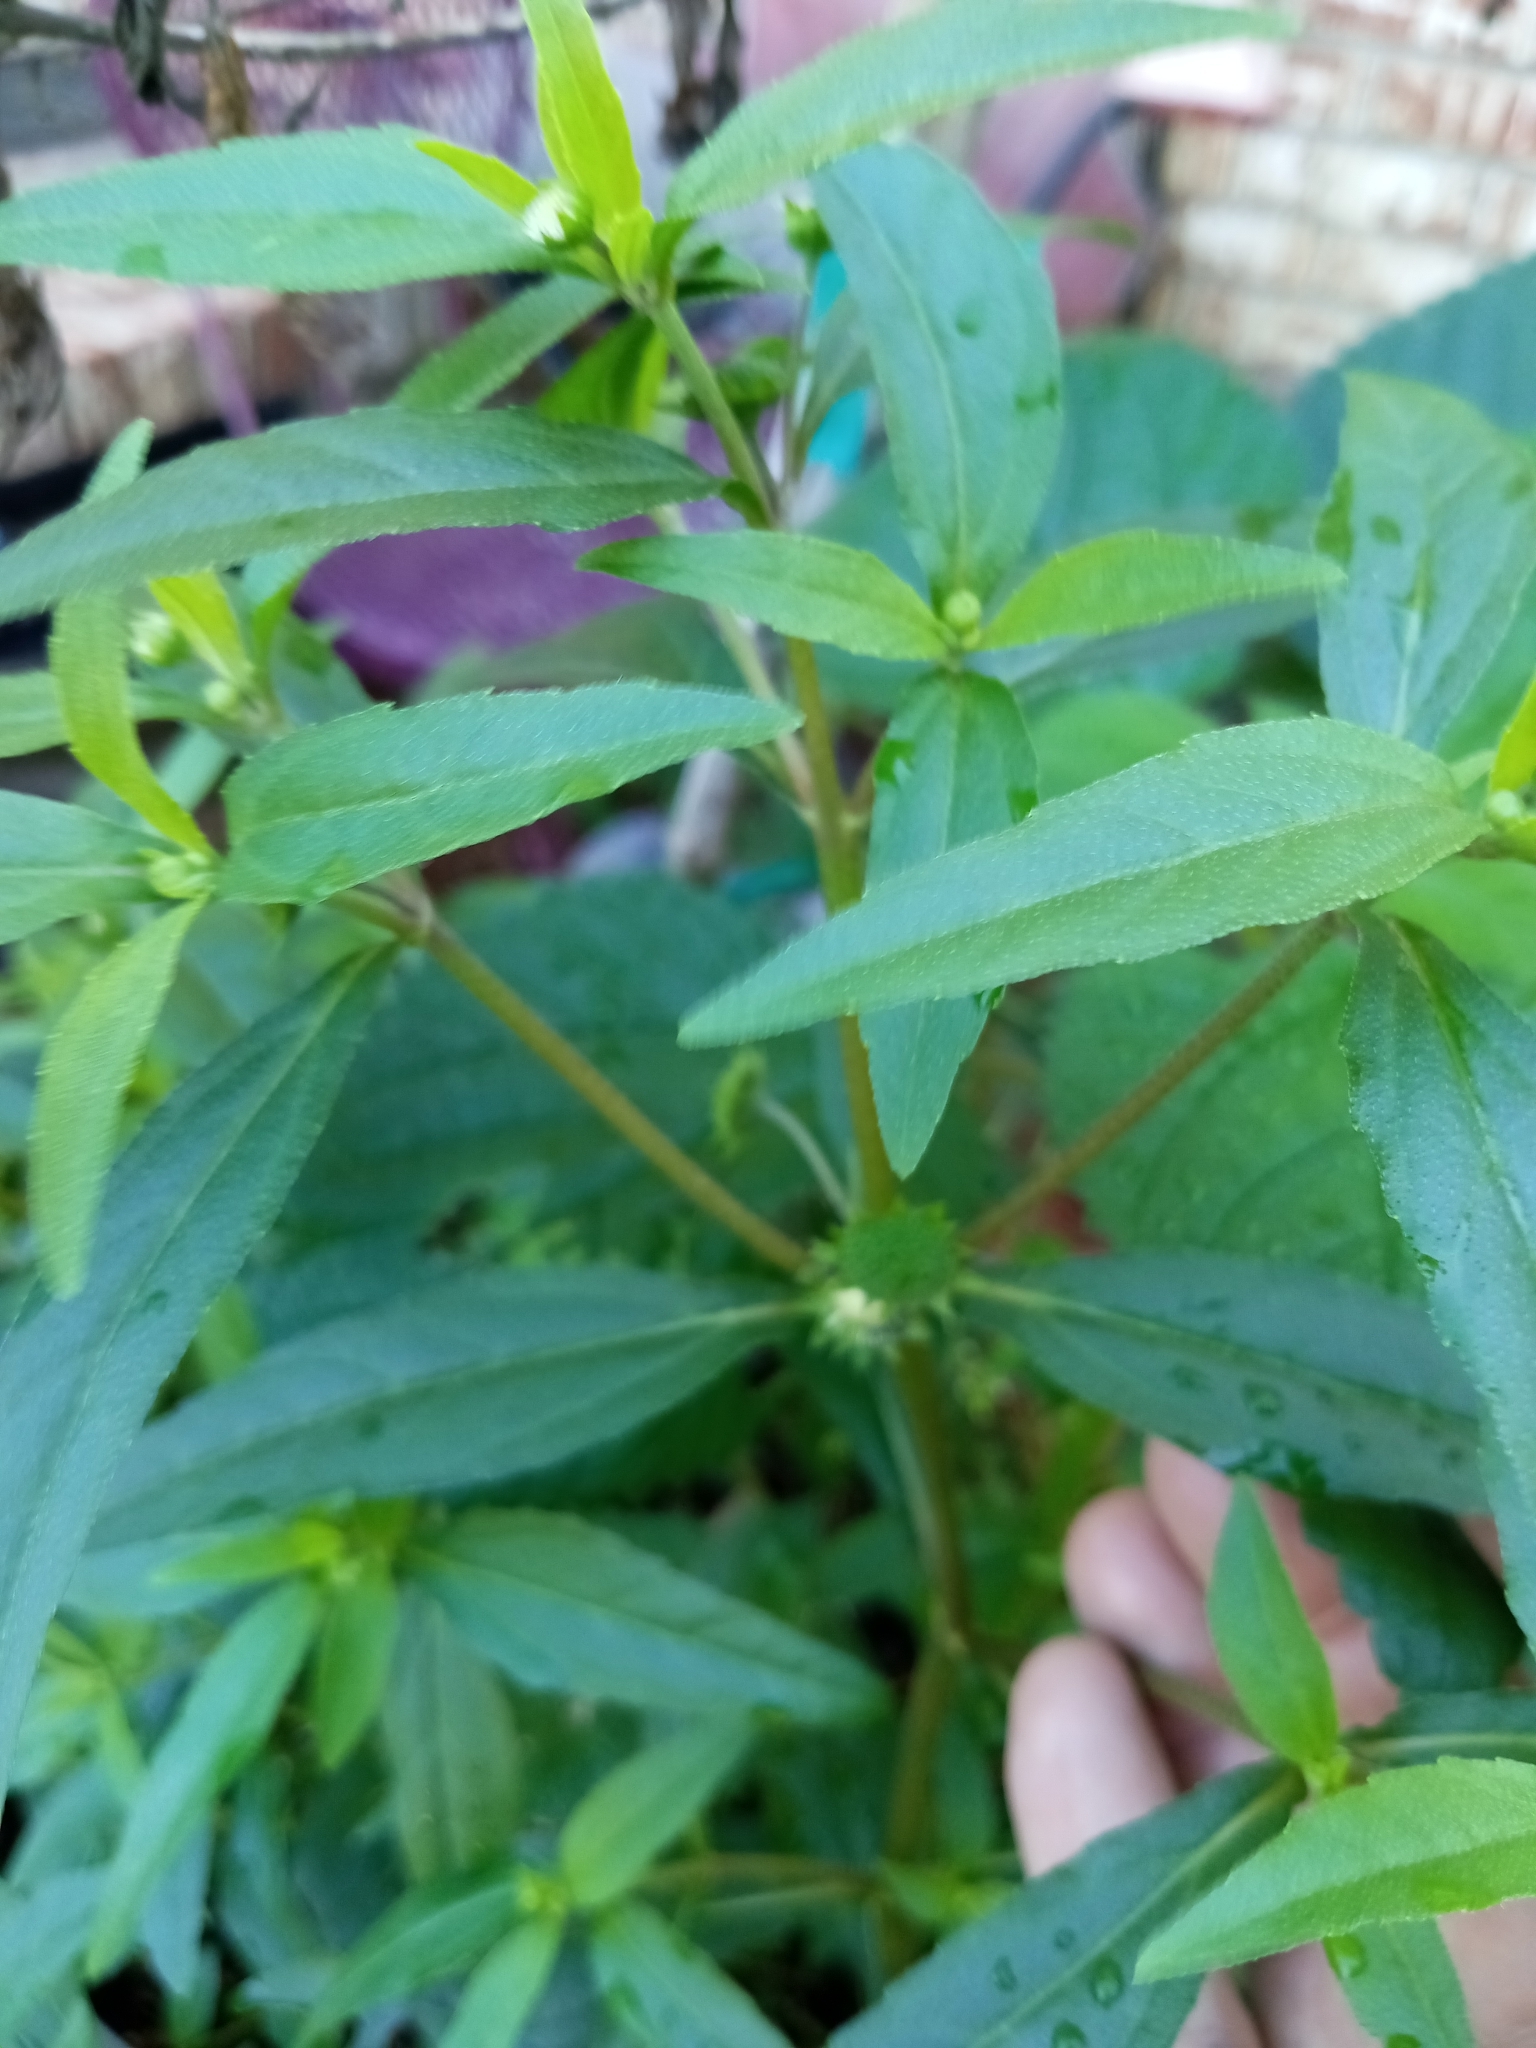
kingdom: Plantae
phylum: Tracheophyta
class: Magnoliopsida
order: Asterales
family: Asteraceae
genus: Eclipta
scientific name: Eclipta prostrata
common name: False daisy
